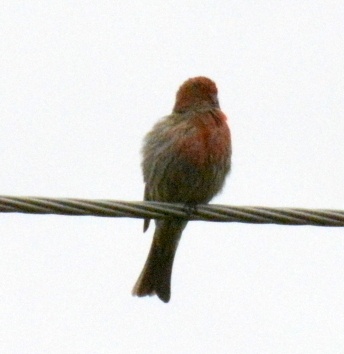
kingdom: Animalia
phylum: Chordata
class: Aves
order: Passeriformes
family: Fringillidae
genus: Haemorhous
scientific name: Haemorhous mexicanus
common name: House finch
